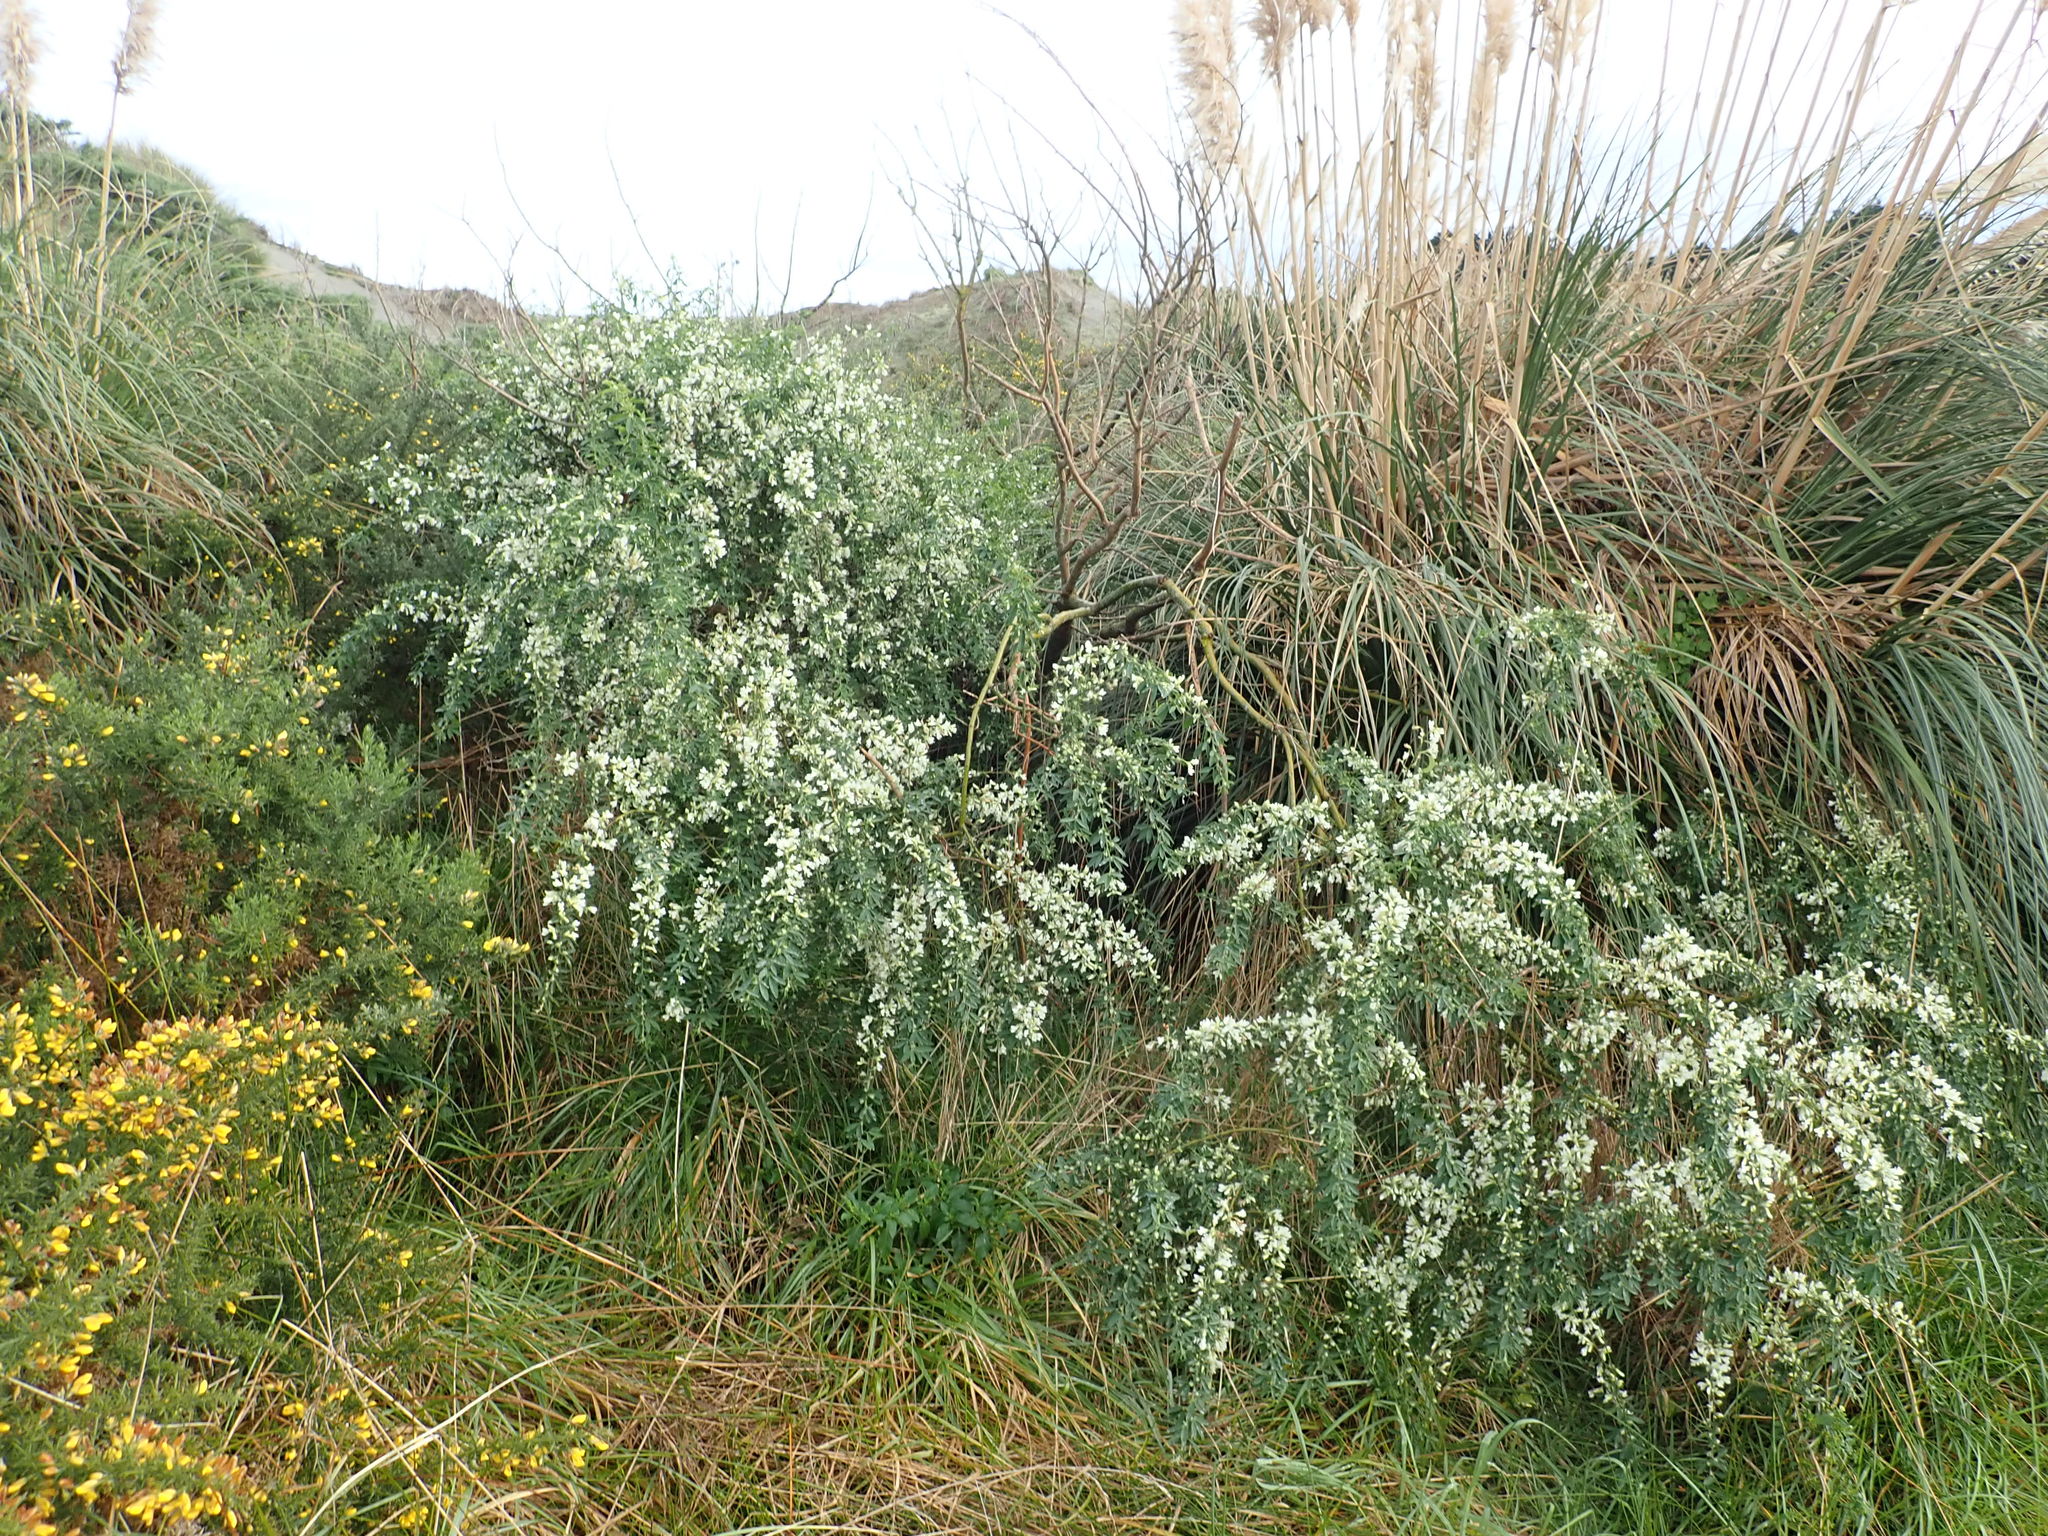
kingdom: Plantae
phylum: Tracheophyta
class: Magnoliopsida
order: Fabales
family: Fabaceae
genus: Chamaecytisus
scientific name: Chamaecytisus prolifer
